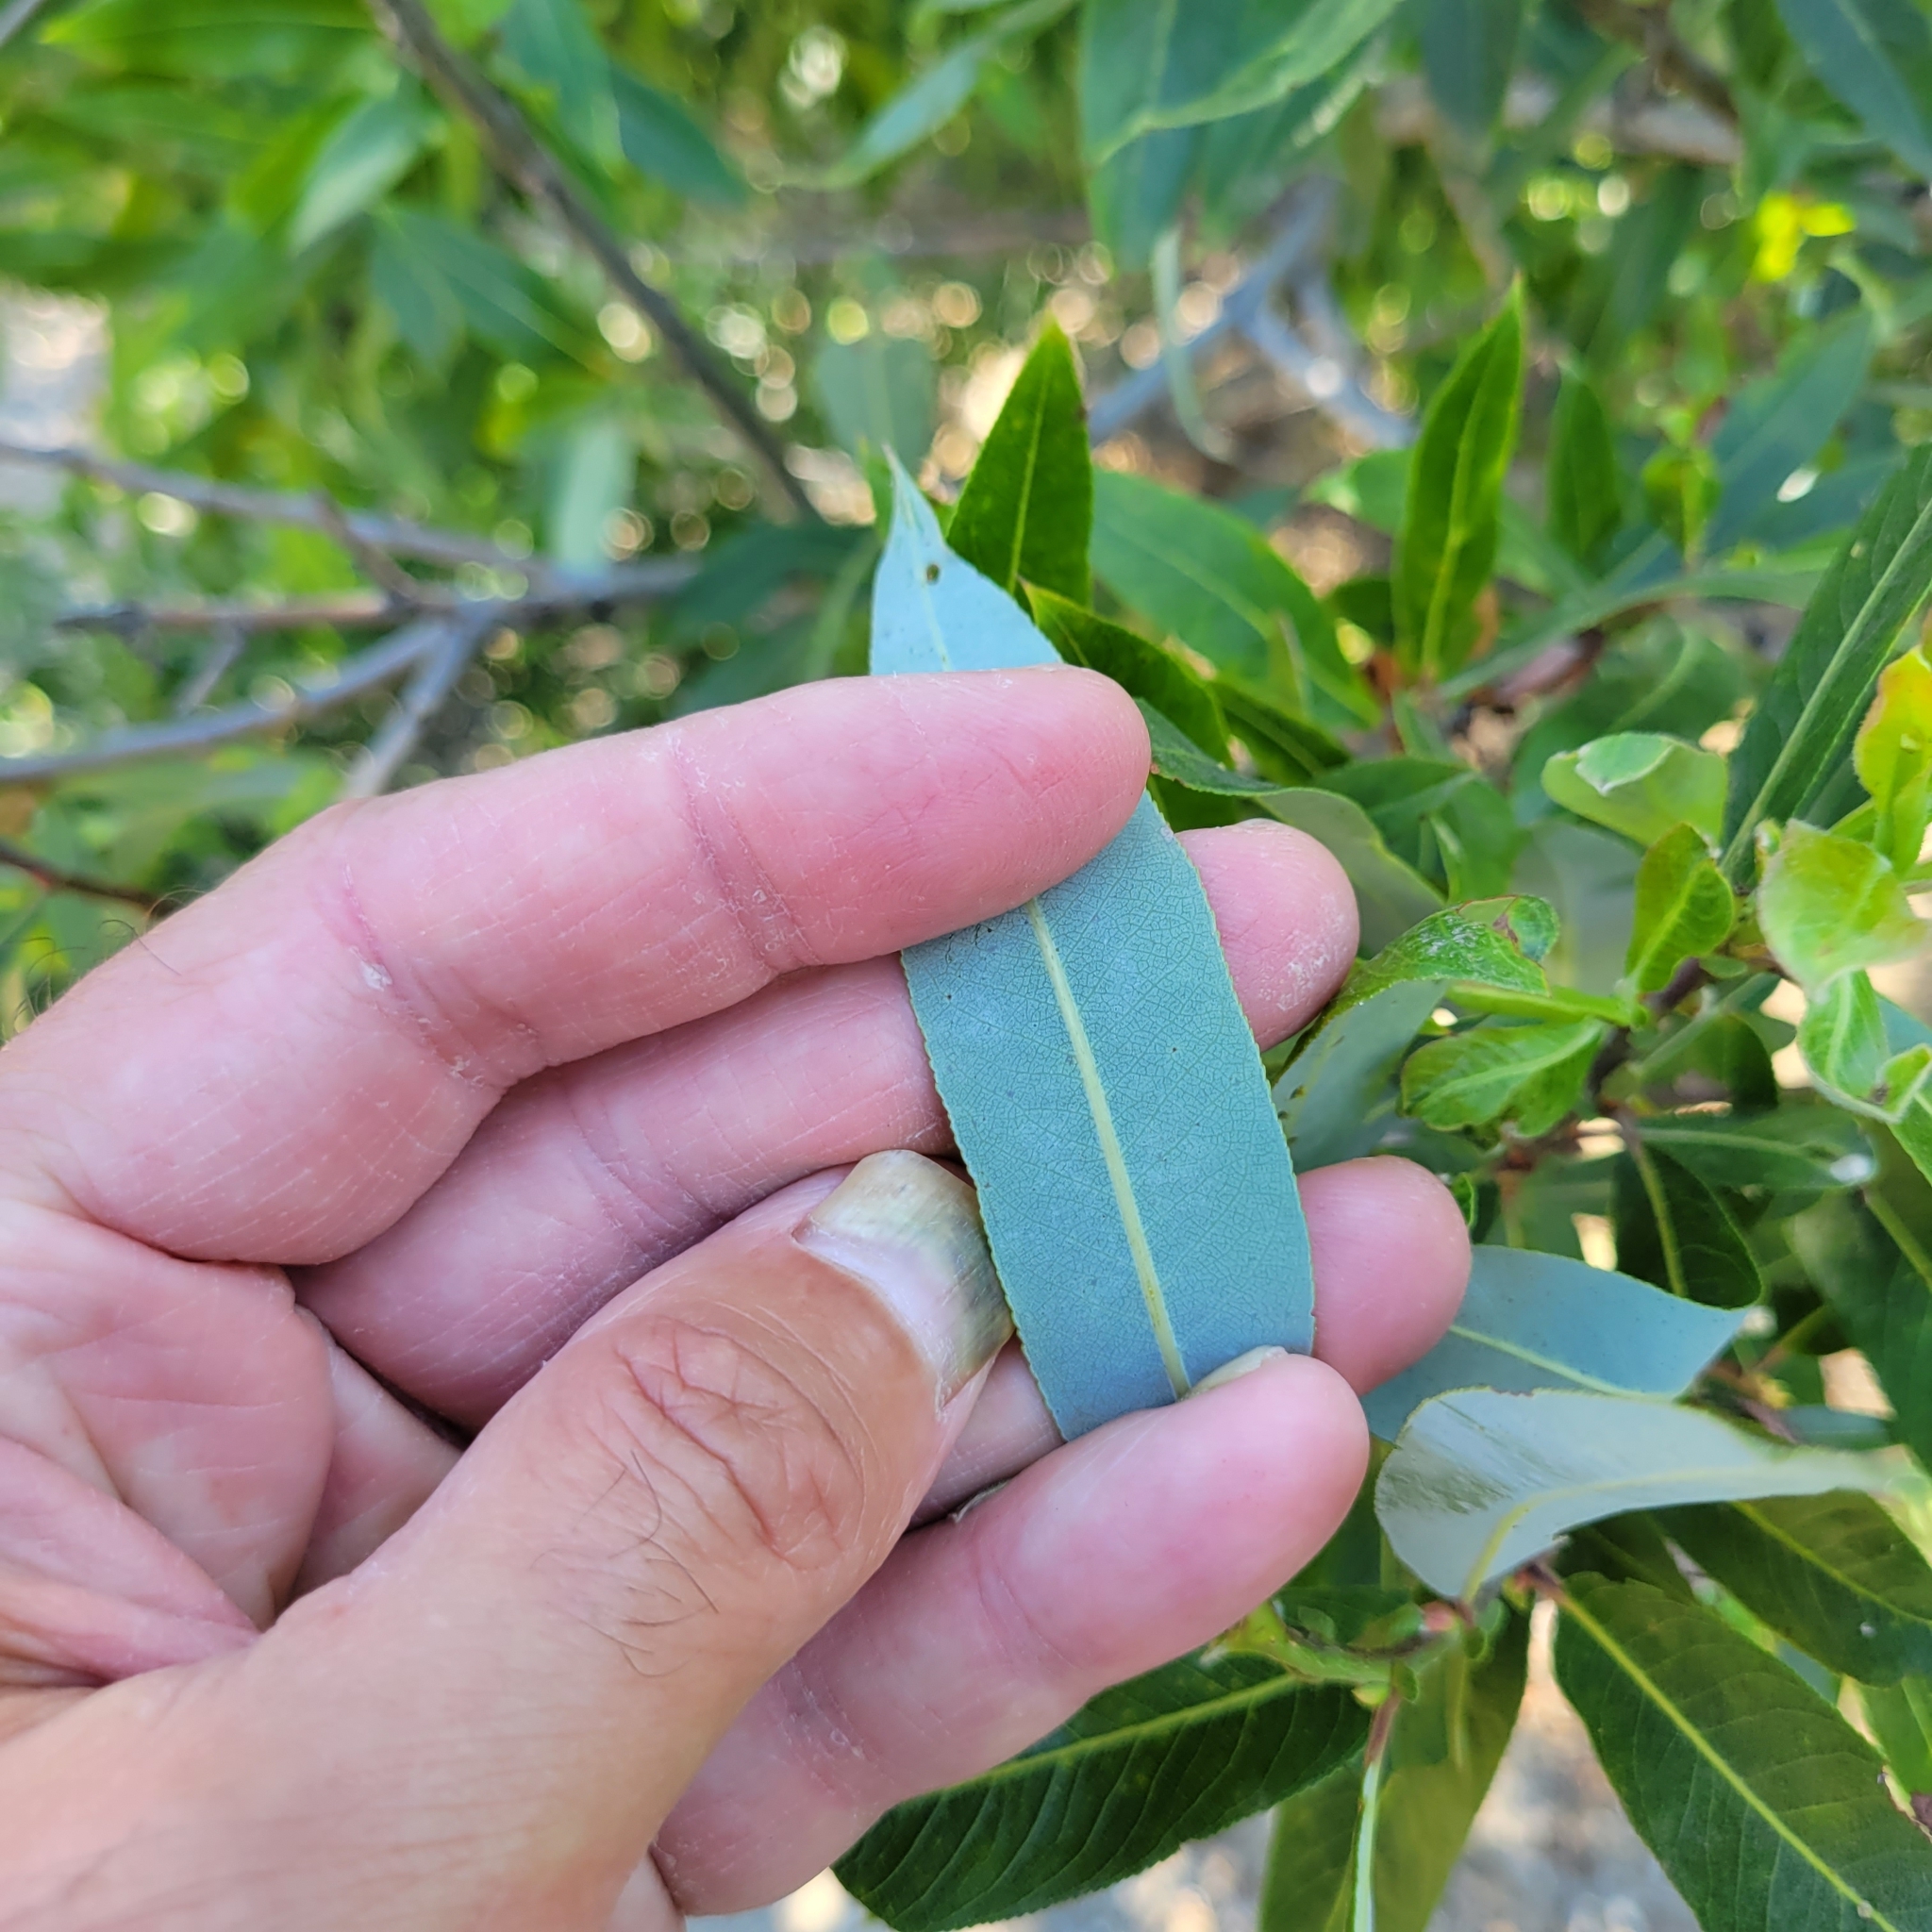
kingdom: Plantae
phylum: Tracheophyta
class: Magnoliopsida
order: Malpighiales
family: Salicaceae
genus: Salix
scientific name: Salix laevigata
